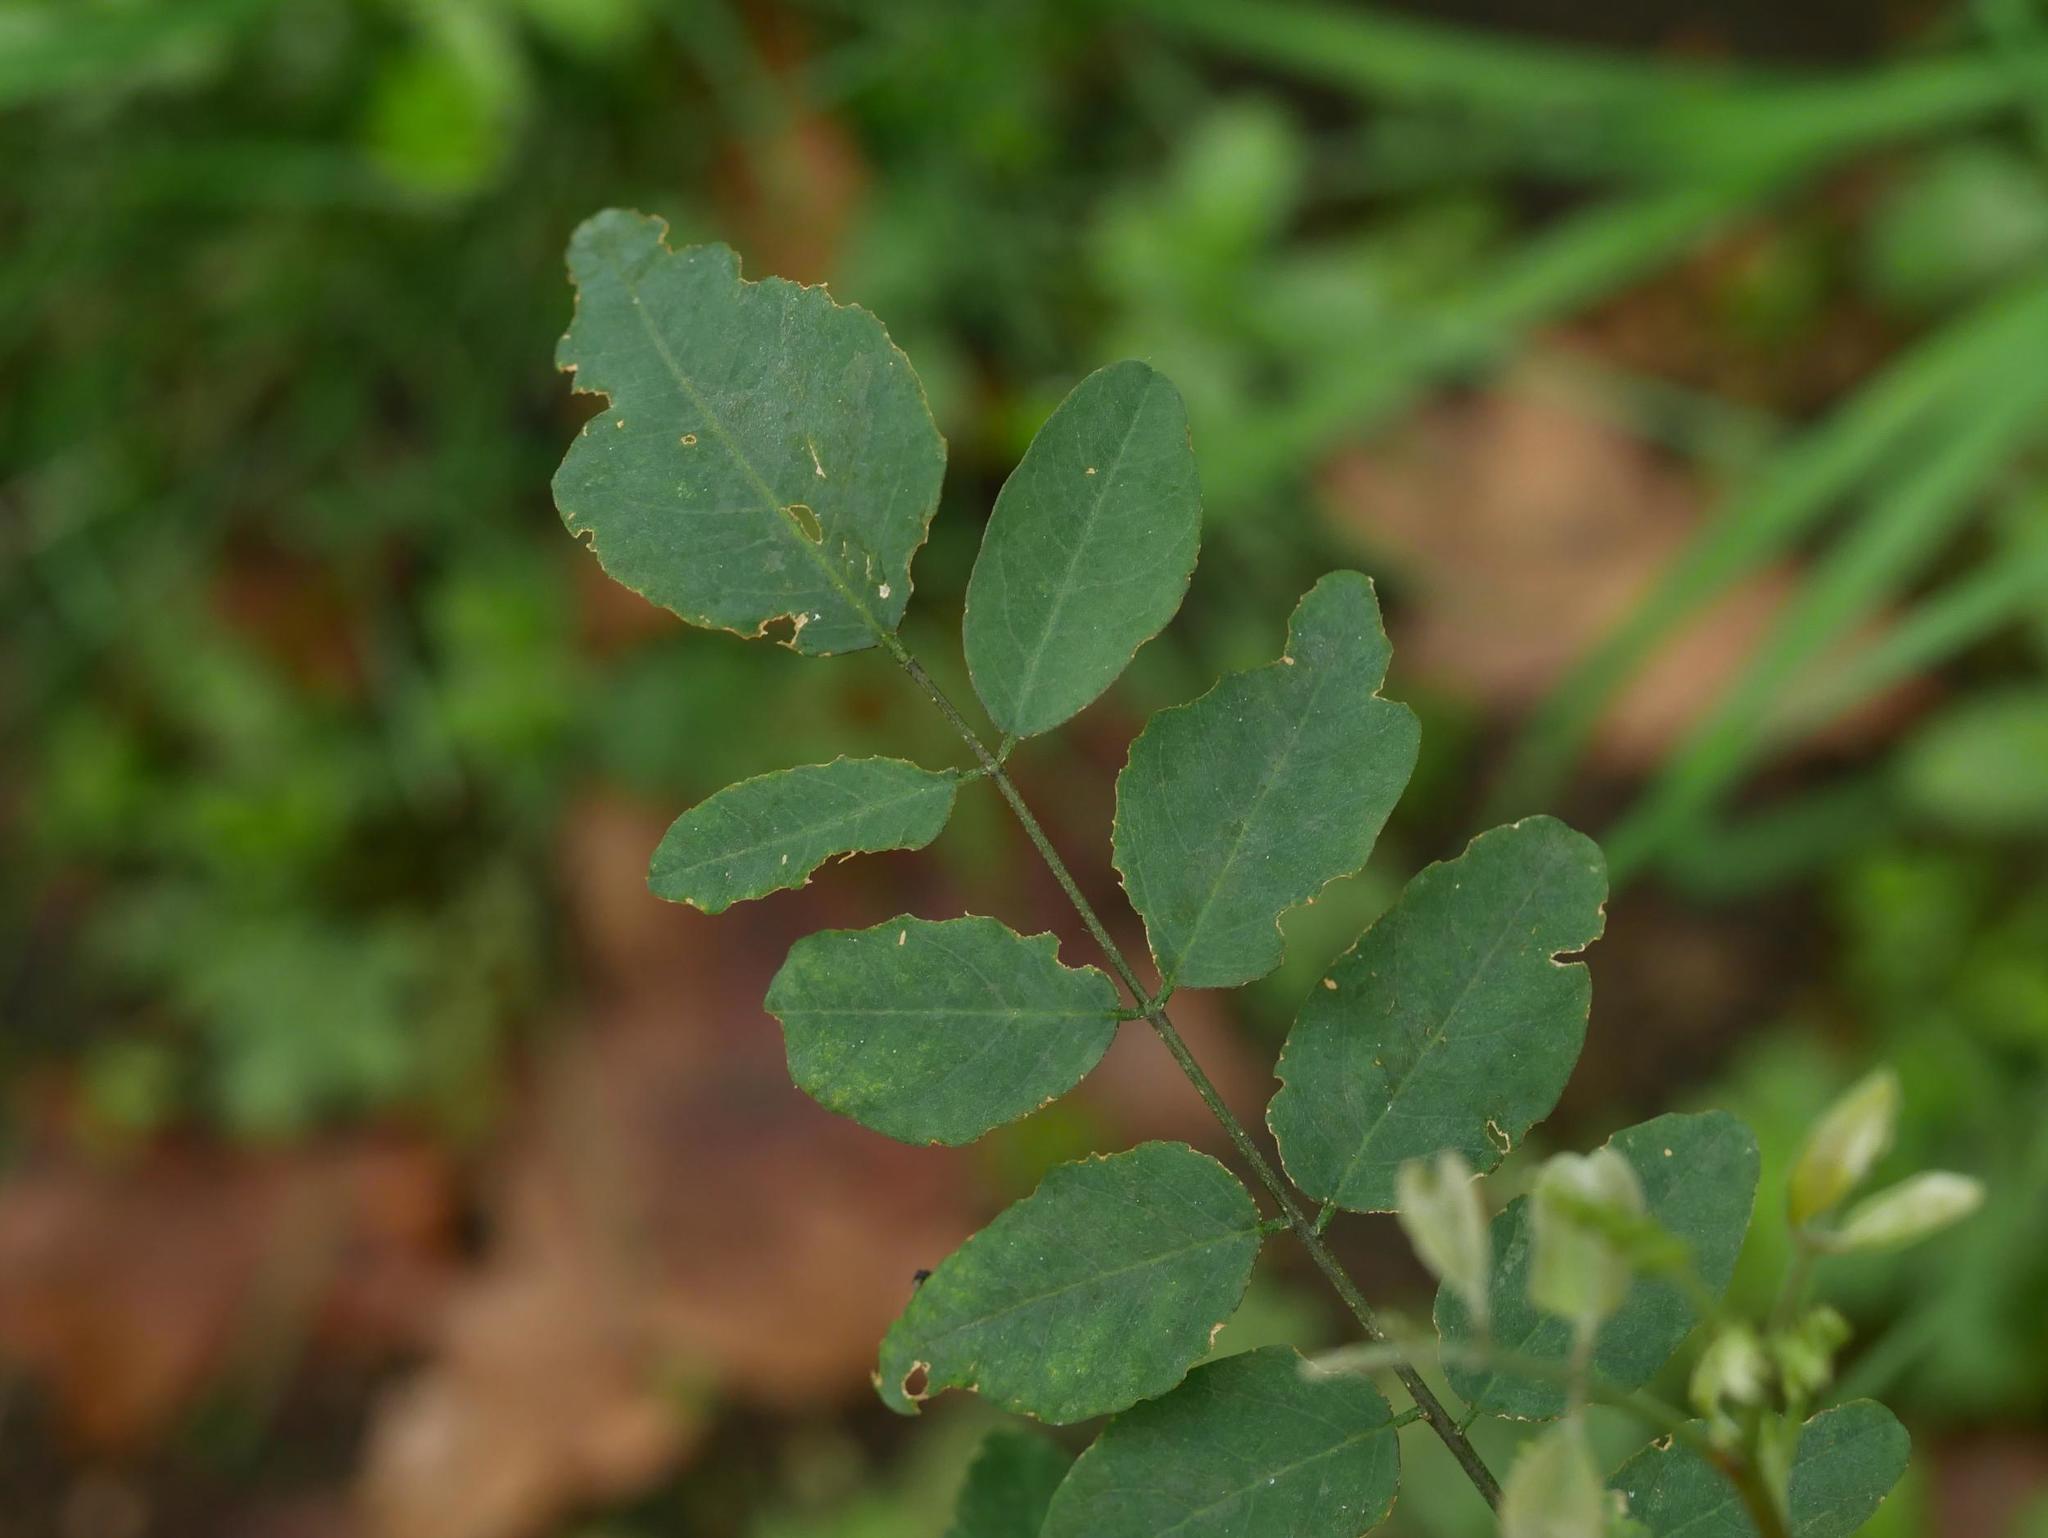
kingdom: Plantae
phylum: Tracheophyta
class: Magnoliopsida
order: Fabales
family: Fabaceae
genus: Robinia
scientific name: Robinia pseudoacacia
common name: Black locust
